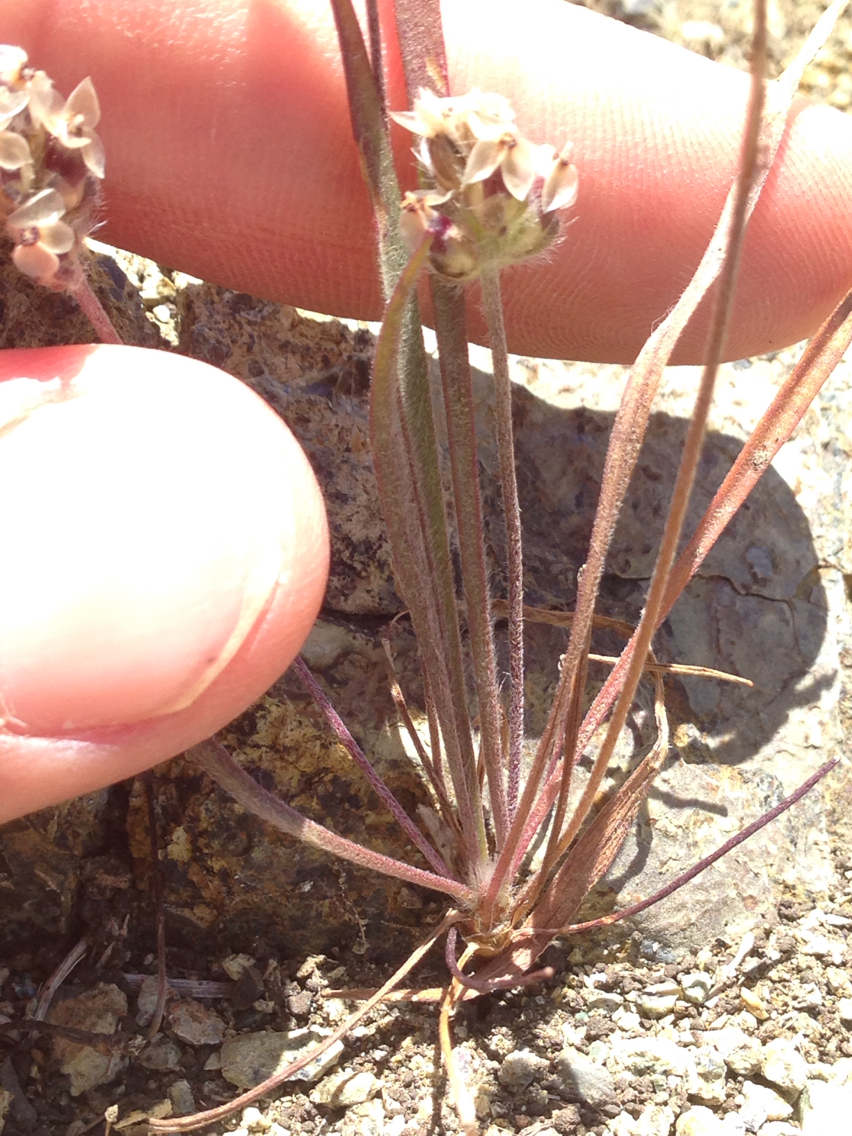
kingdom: Plantae
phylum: Tracheophyta
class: Magnoliopsida
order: Lamiales
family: Plantaginaceae
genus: Plantago
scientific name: Plantago erecta
